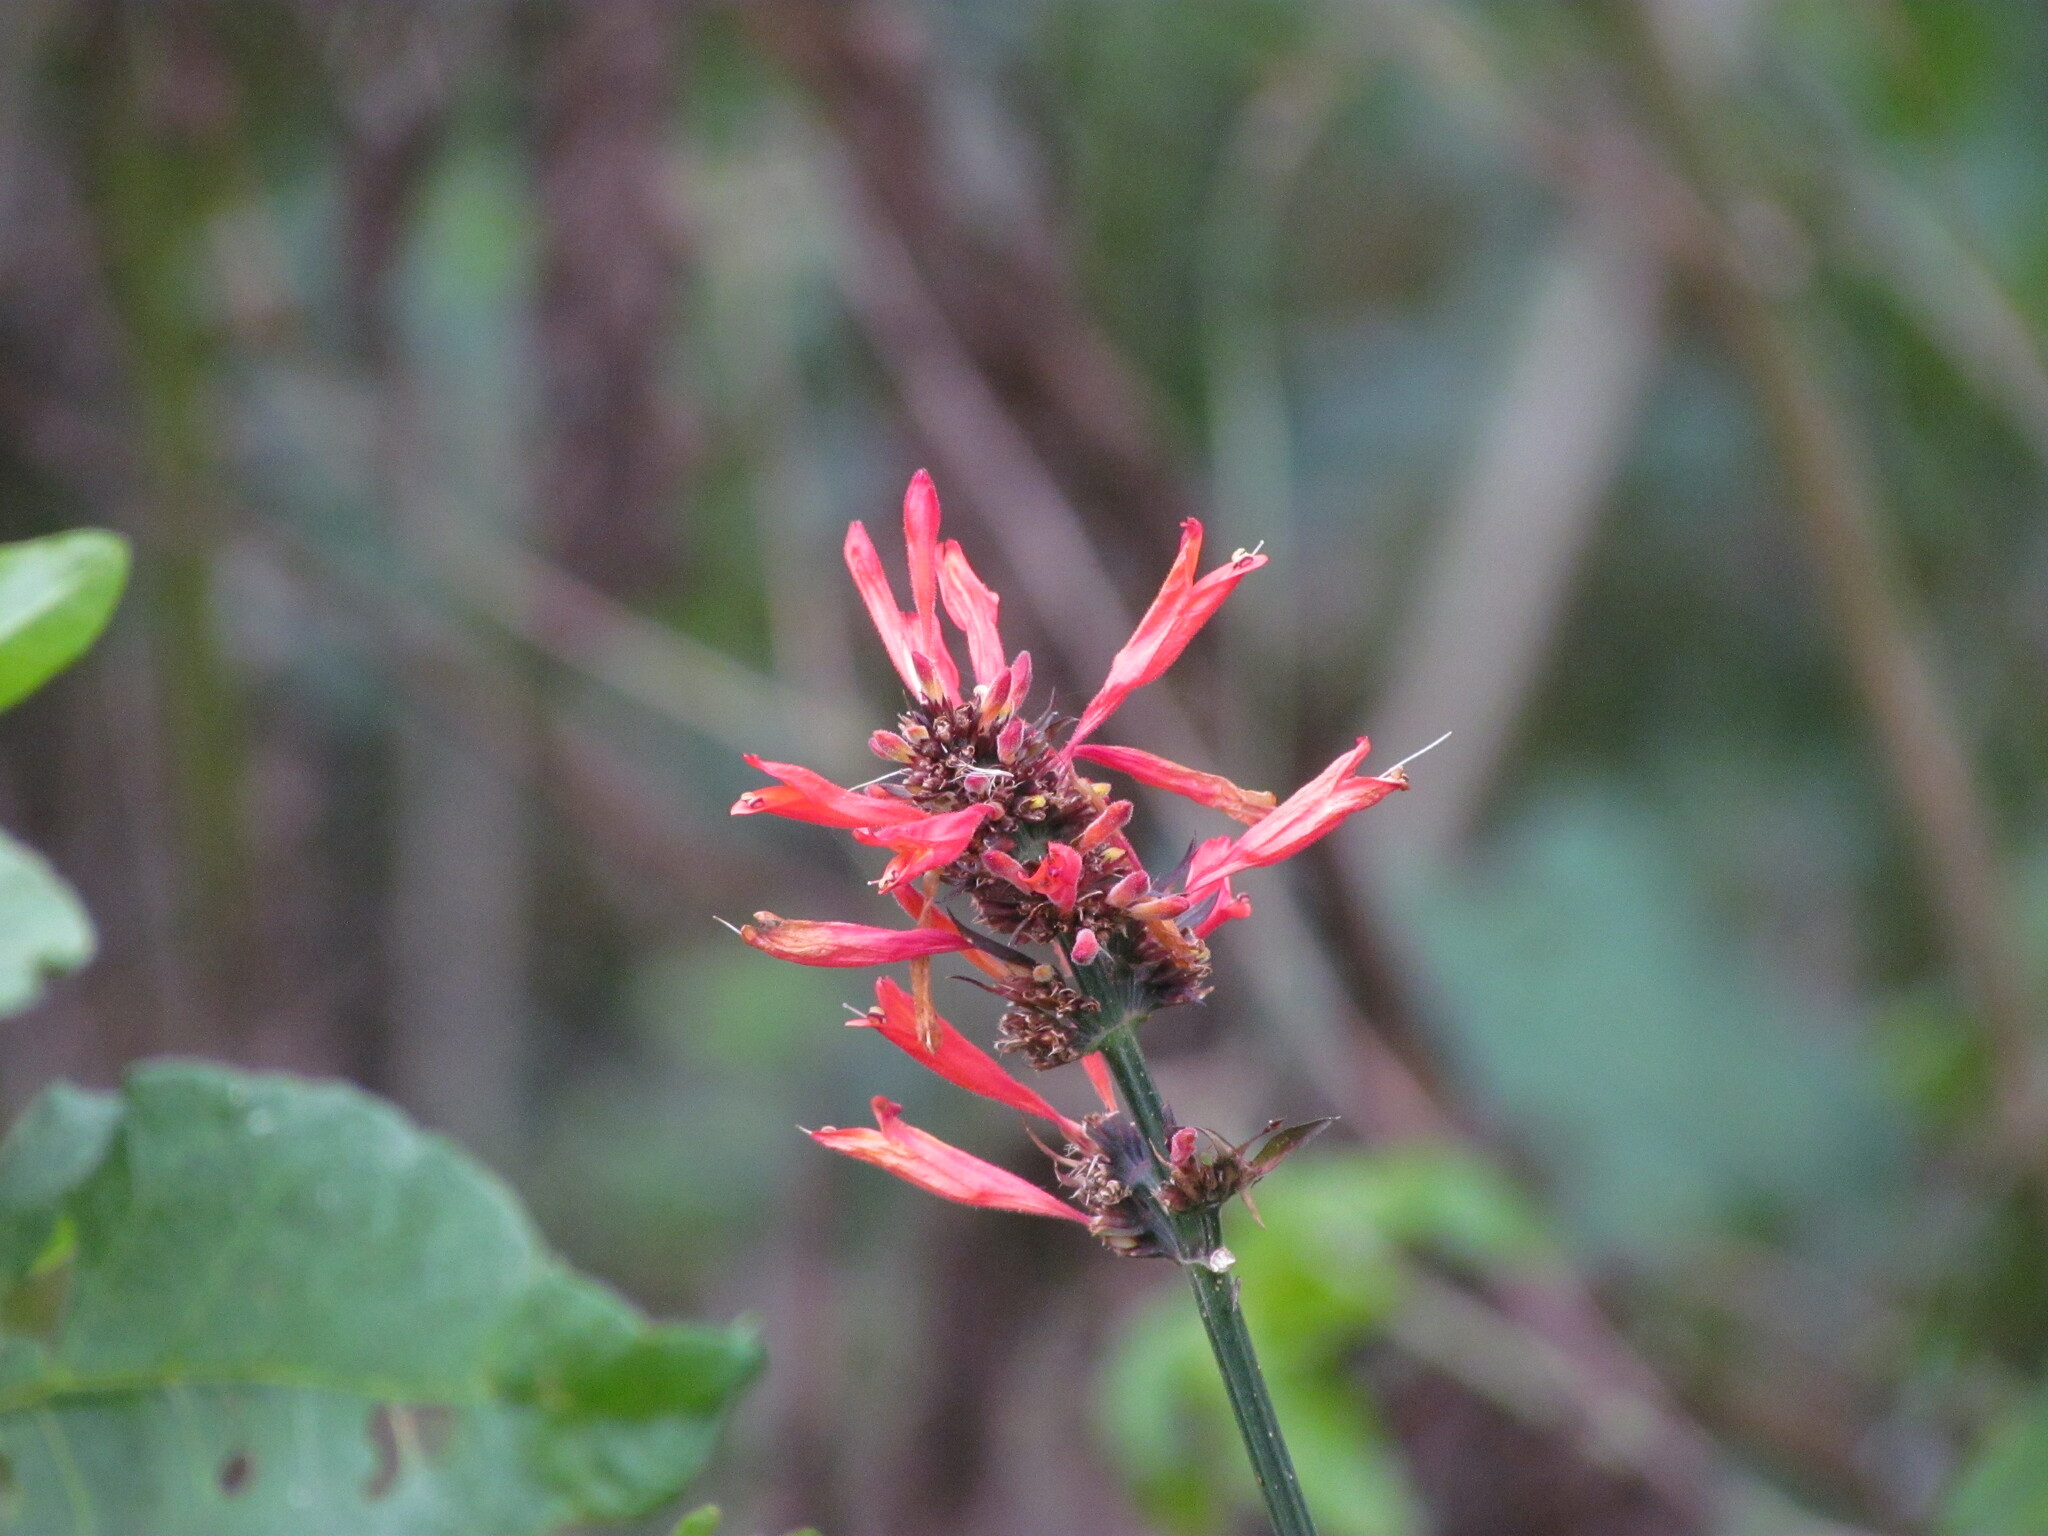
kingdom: Plantae
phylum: Tracheophyta
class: Magnoliopsida
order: Lamiales
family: Acanthaceae
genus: Dicliptera
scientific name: Dicliptera squarrosa
